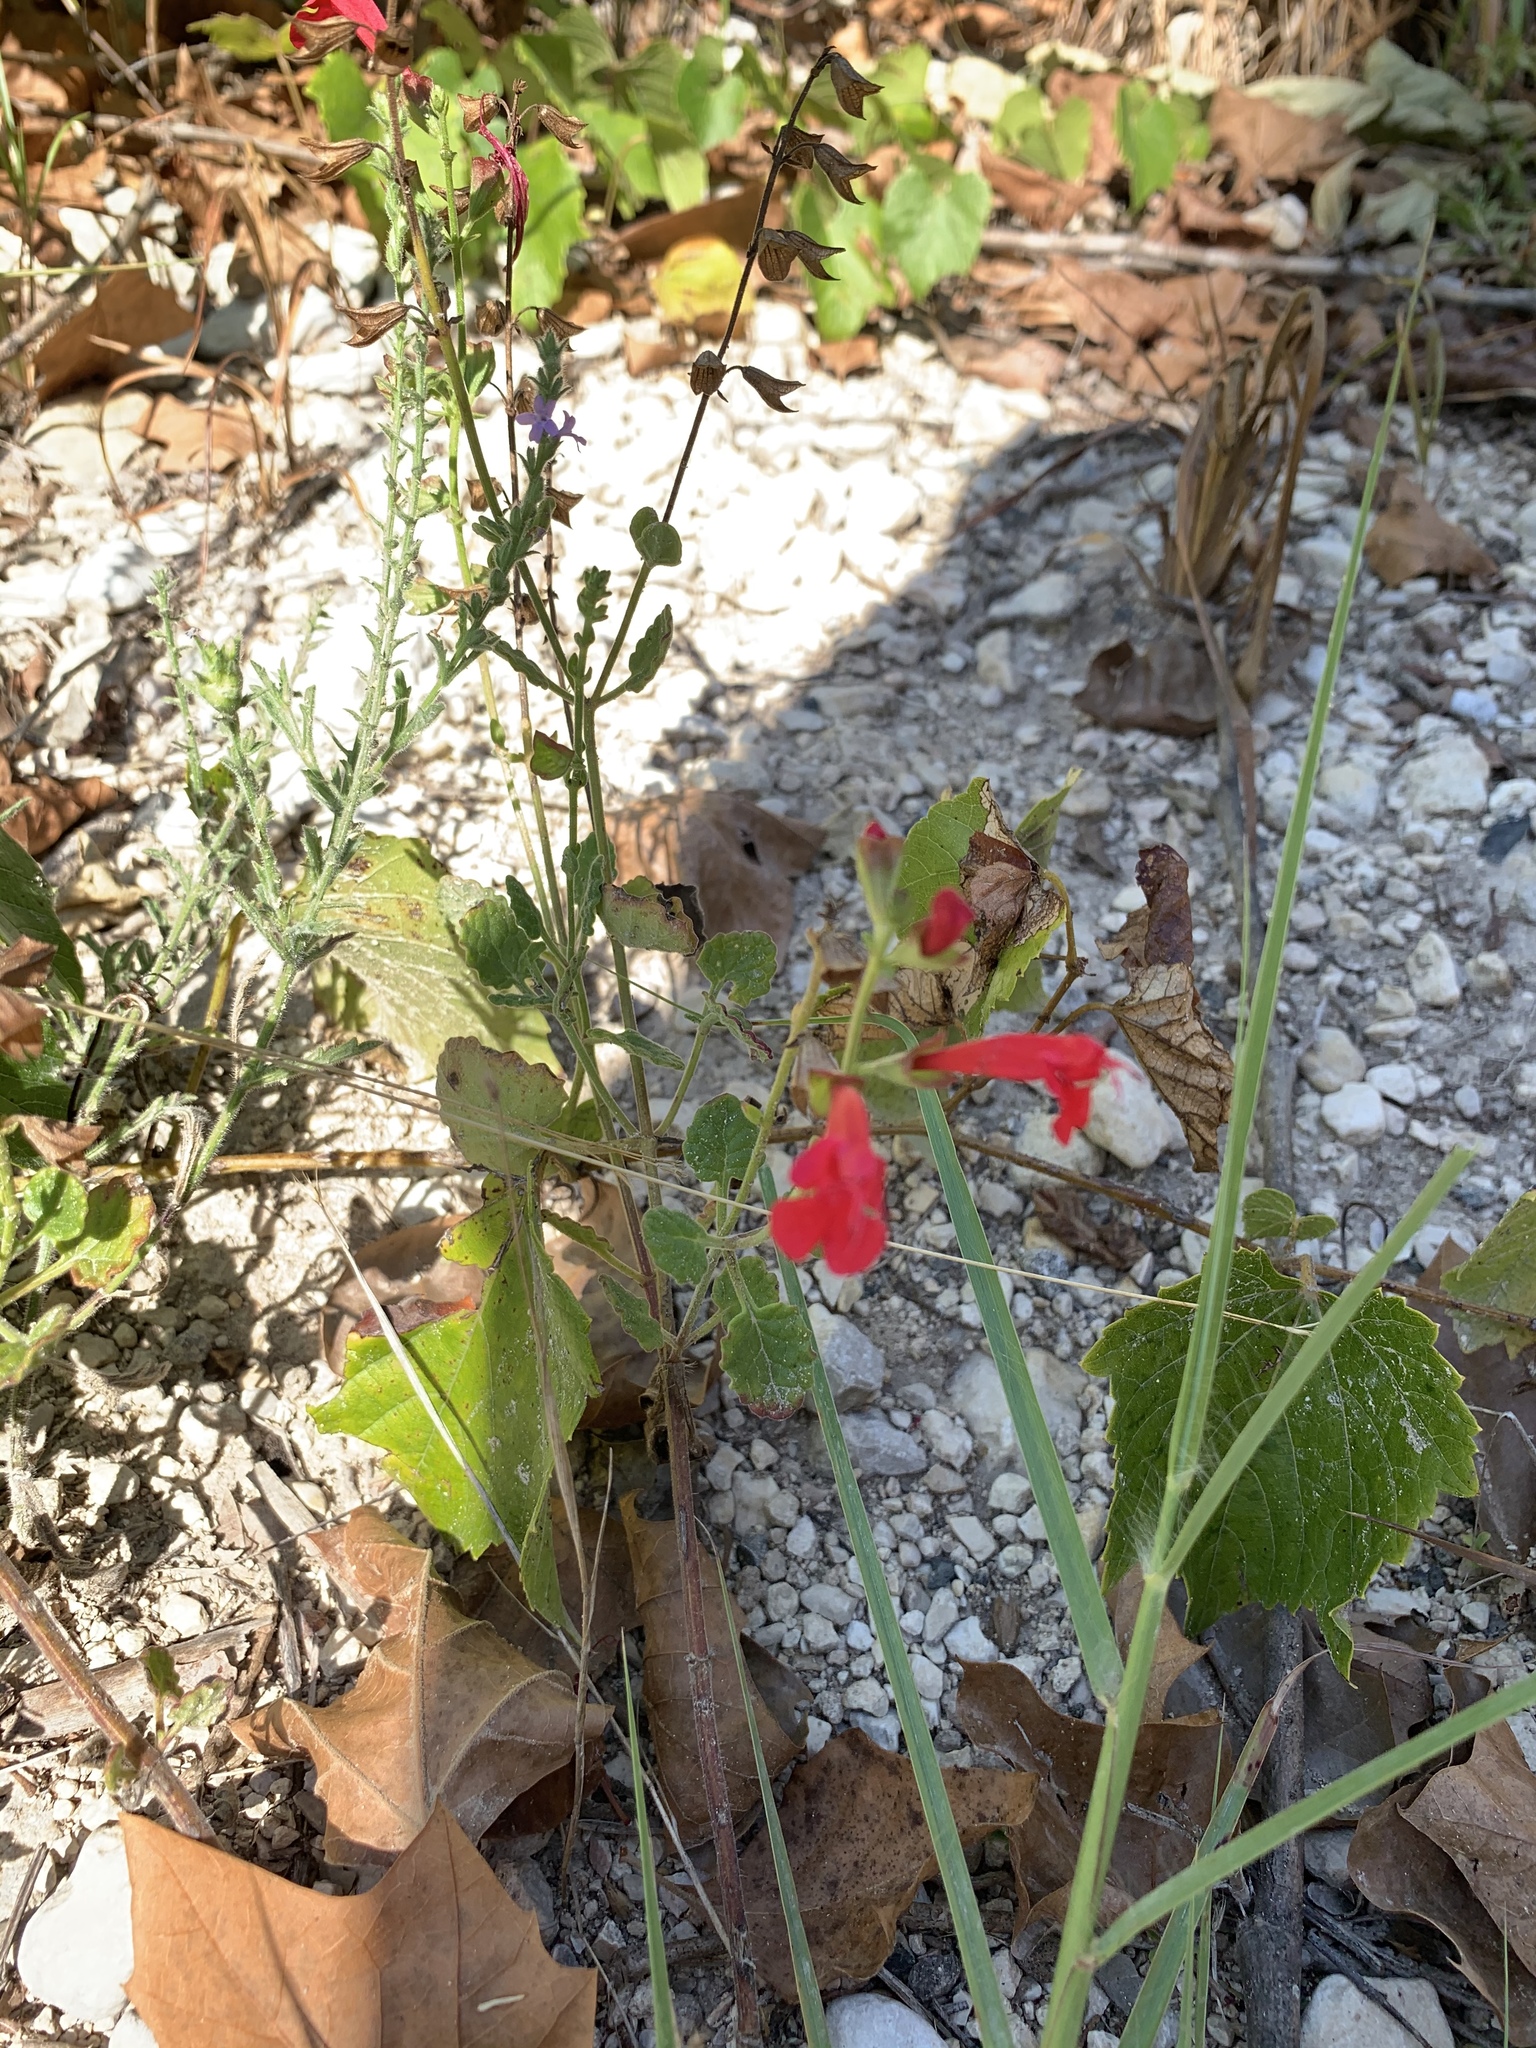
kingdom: Plantae
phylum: Tracheophyta
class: Magnoliopsida
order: Lamiales
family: Lamiaceae
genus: Salvia
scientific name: Salvia roemeriana
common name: Cedar sage
